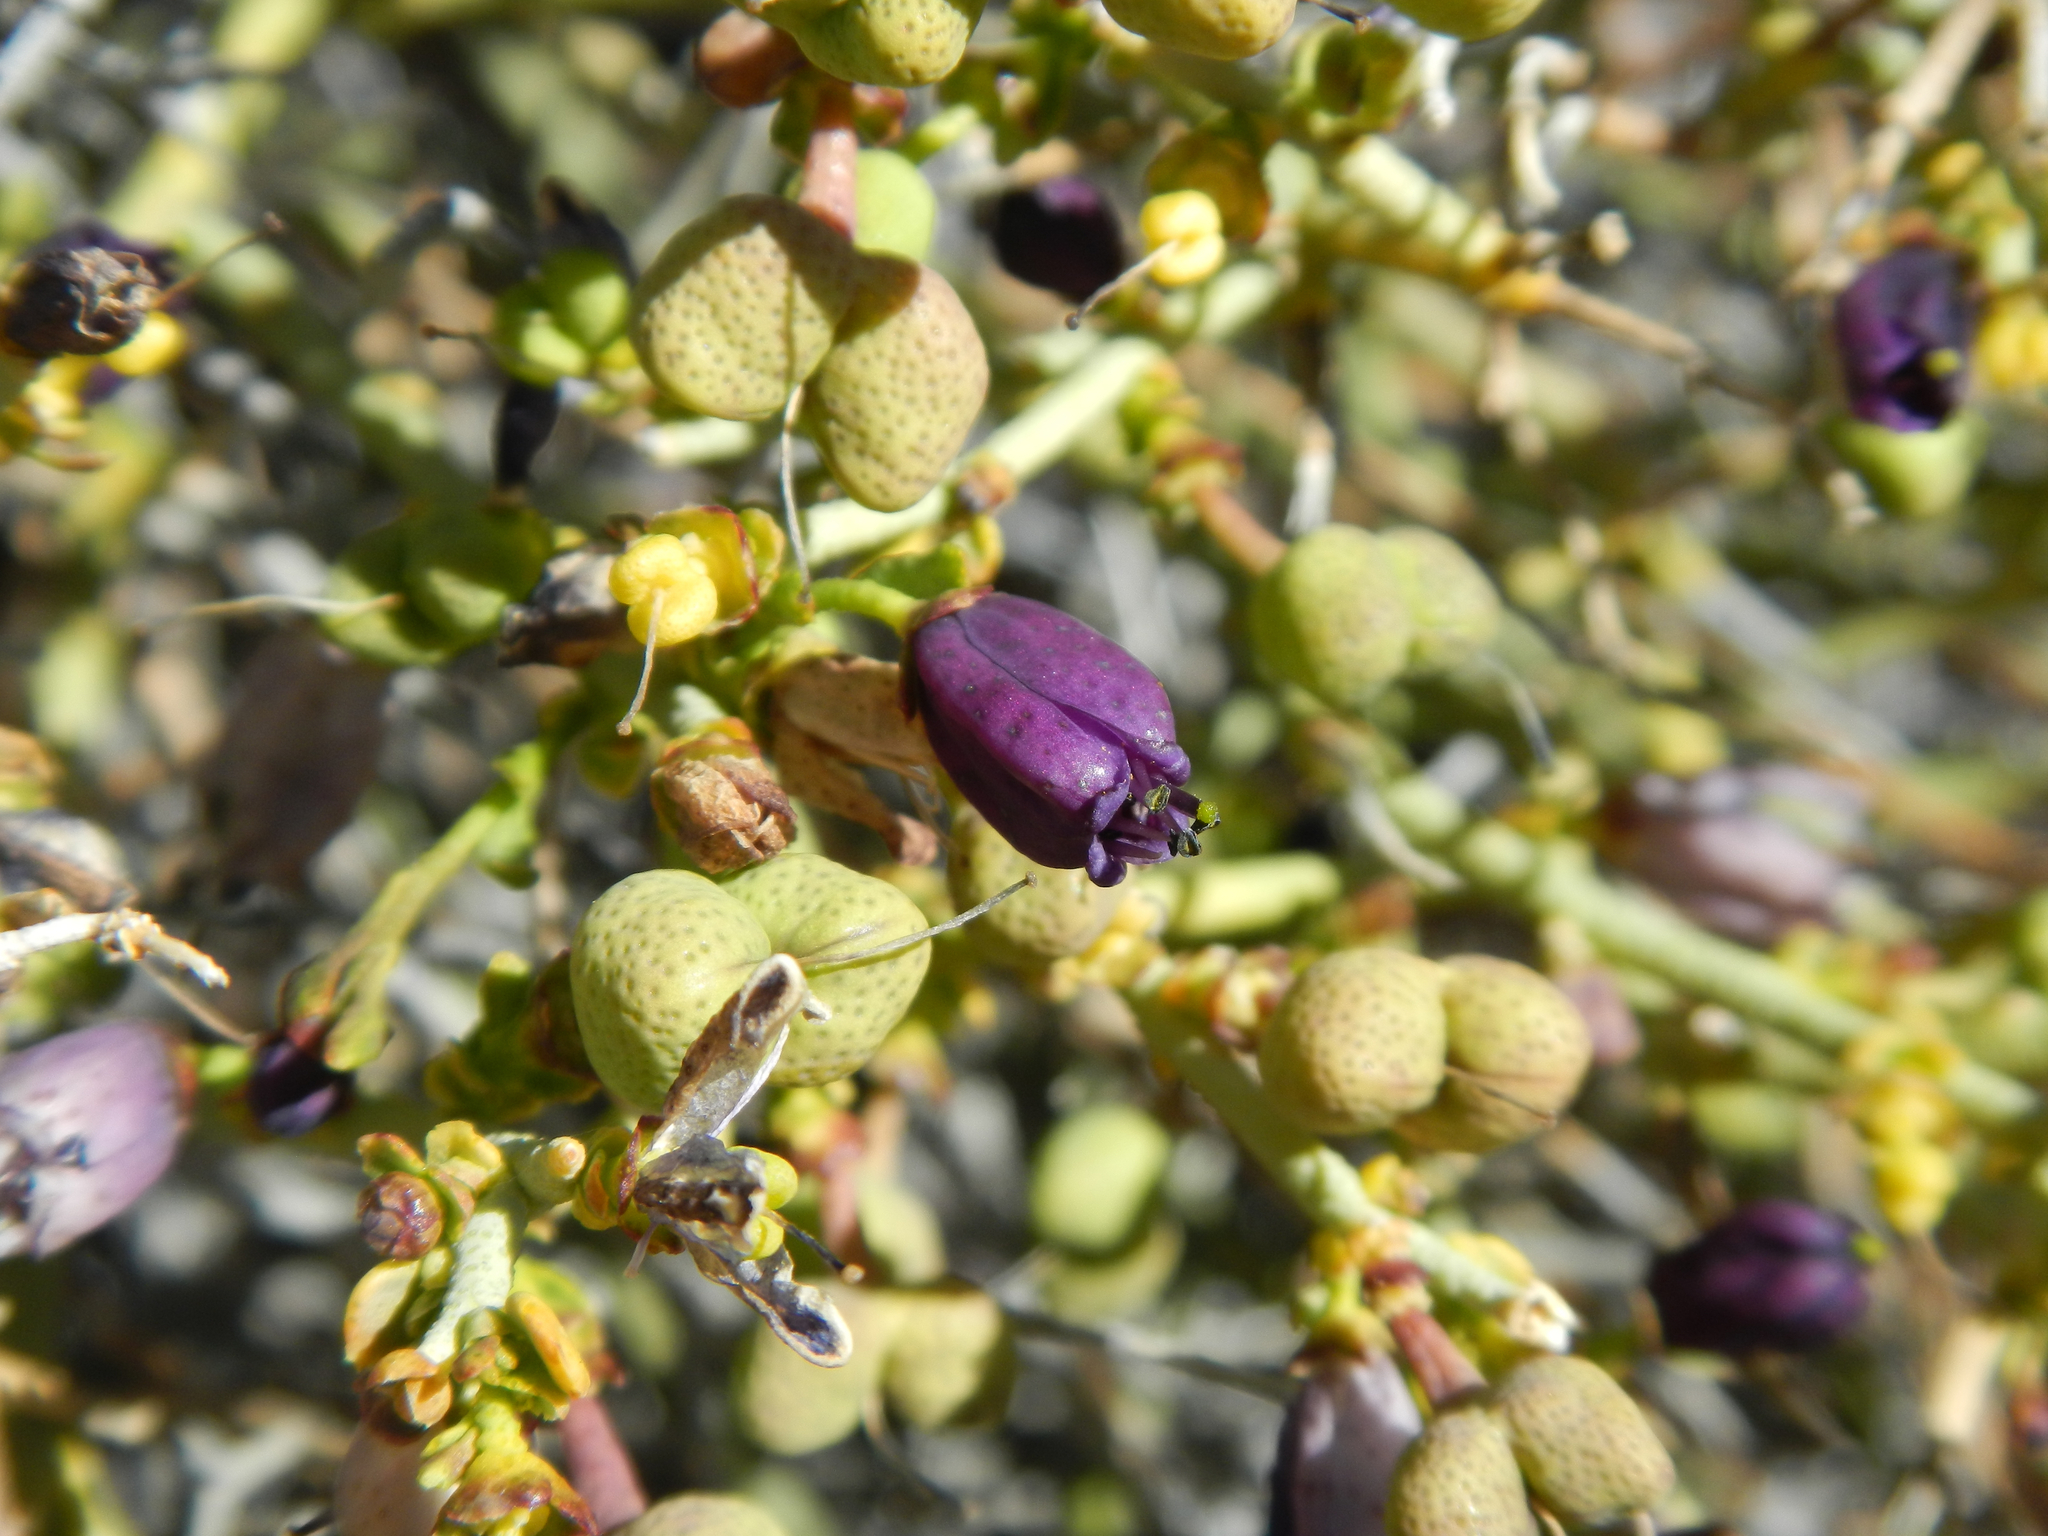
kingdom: Plantae
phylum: Tracheophyta
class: Magnoliopsida
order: Sapindales
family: Rutaceae
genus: Thamnosma
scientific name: Thamnosma montana
